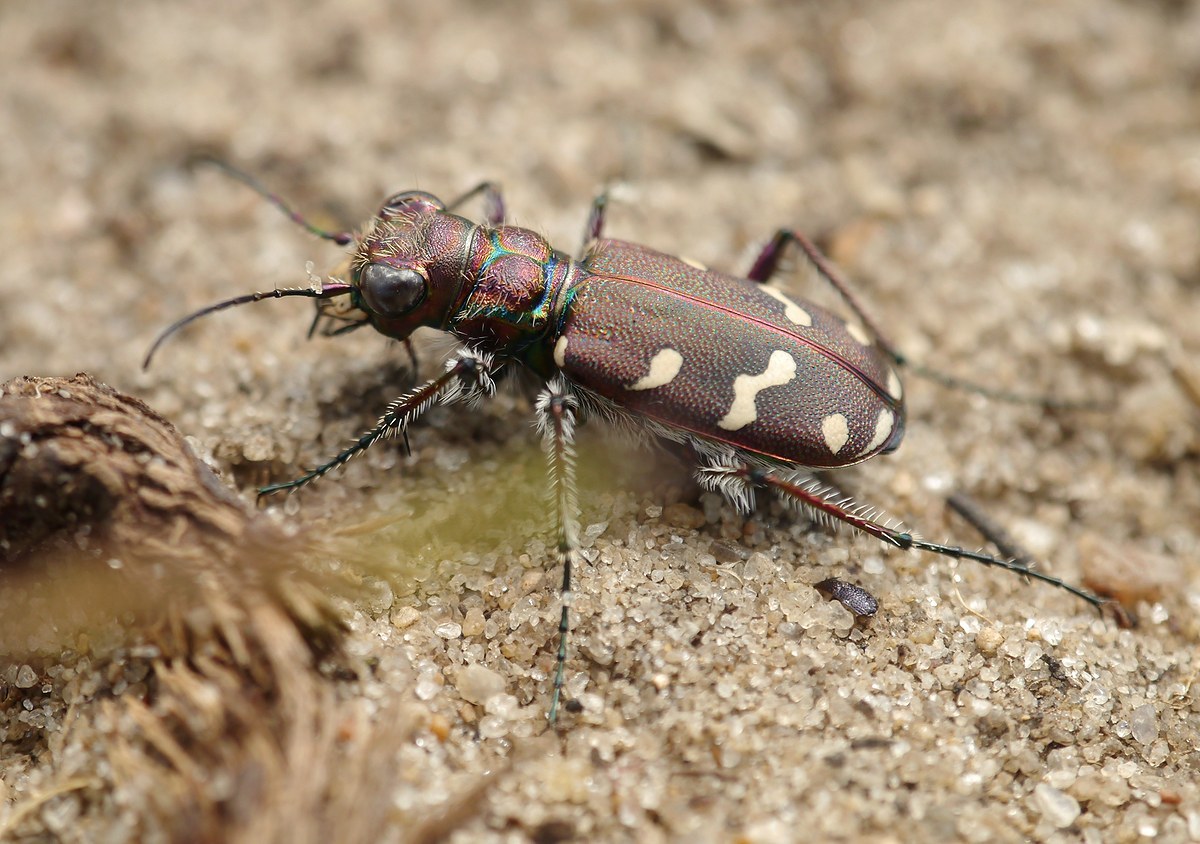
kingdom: Animalia
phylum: Arthropoda
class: Insecta
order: Coleoptera
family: Carabidae
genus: Cicindela
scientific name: Cicindela soluta
